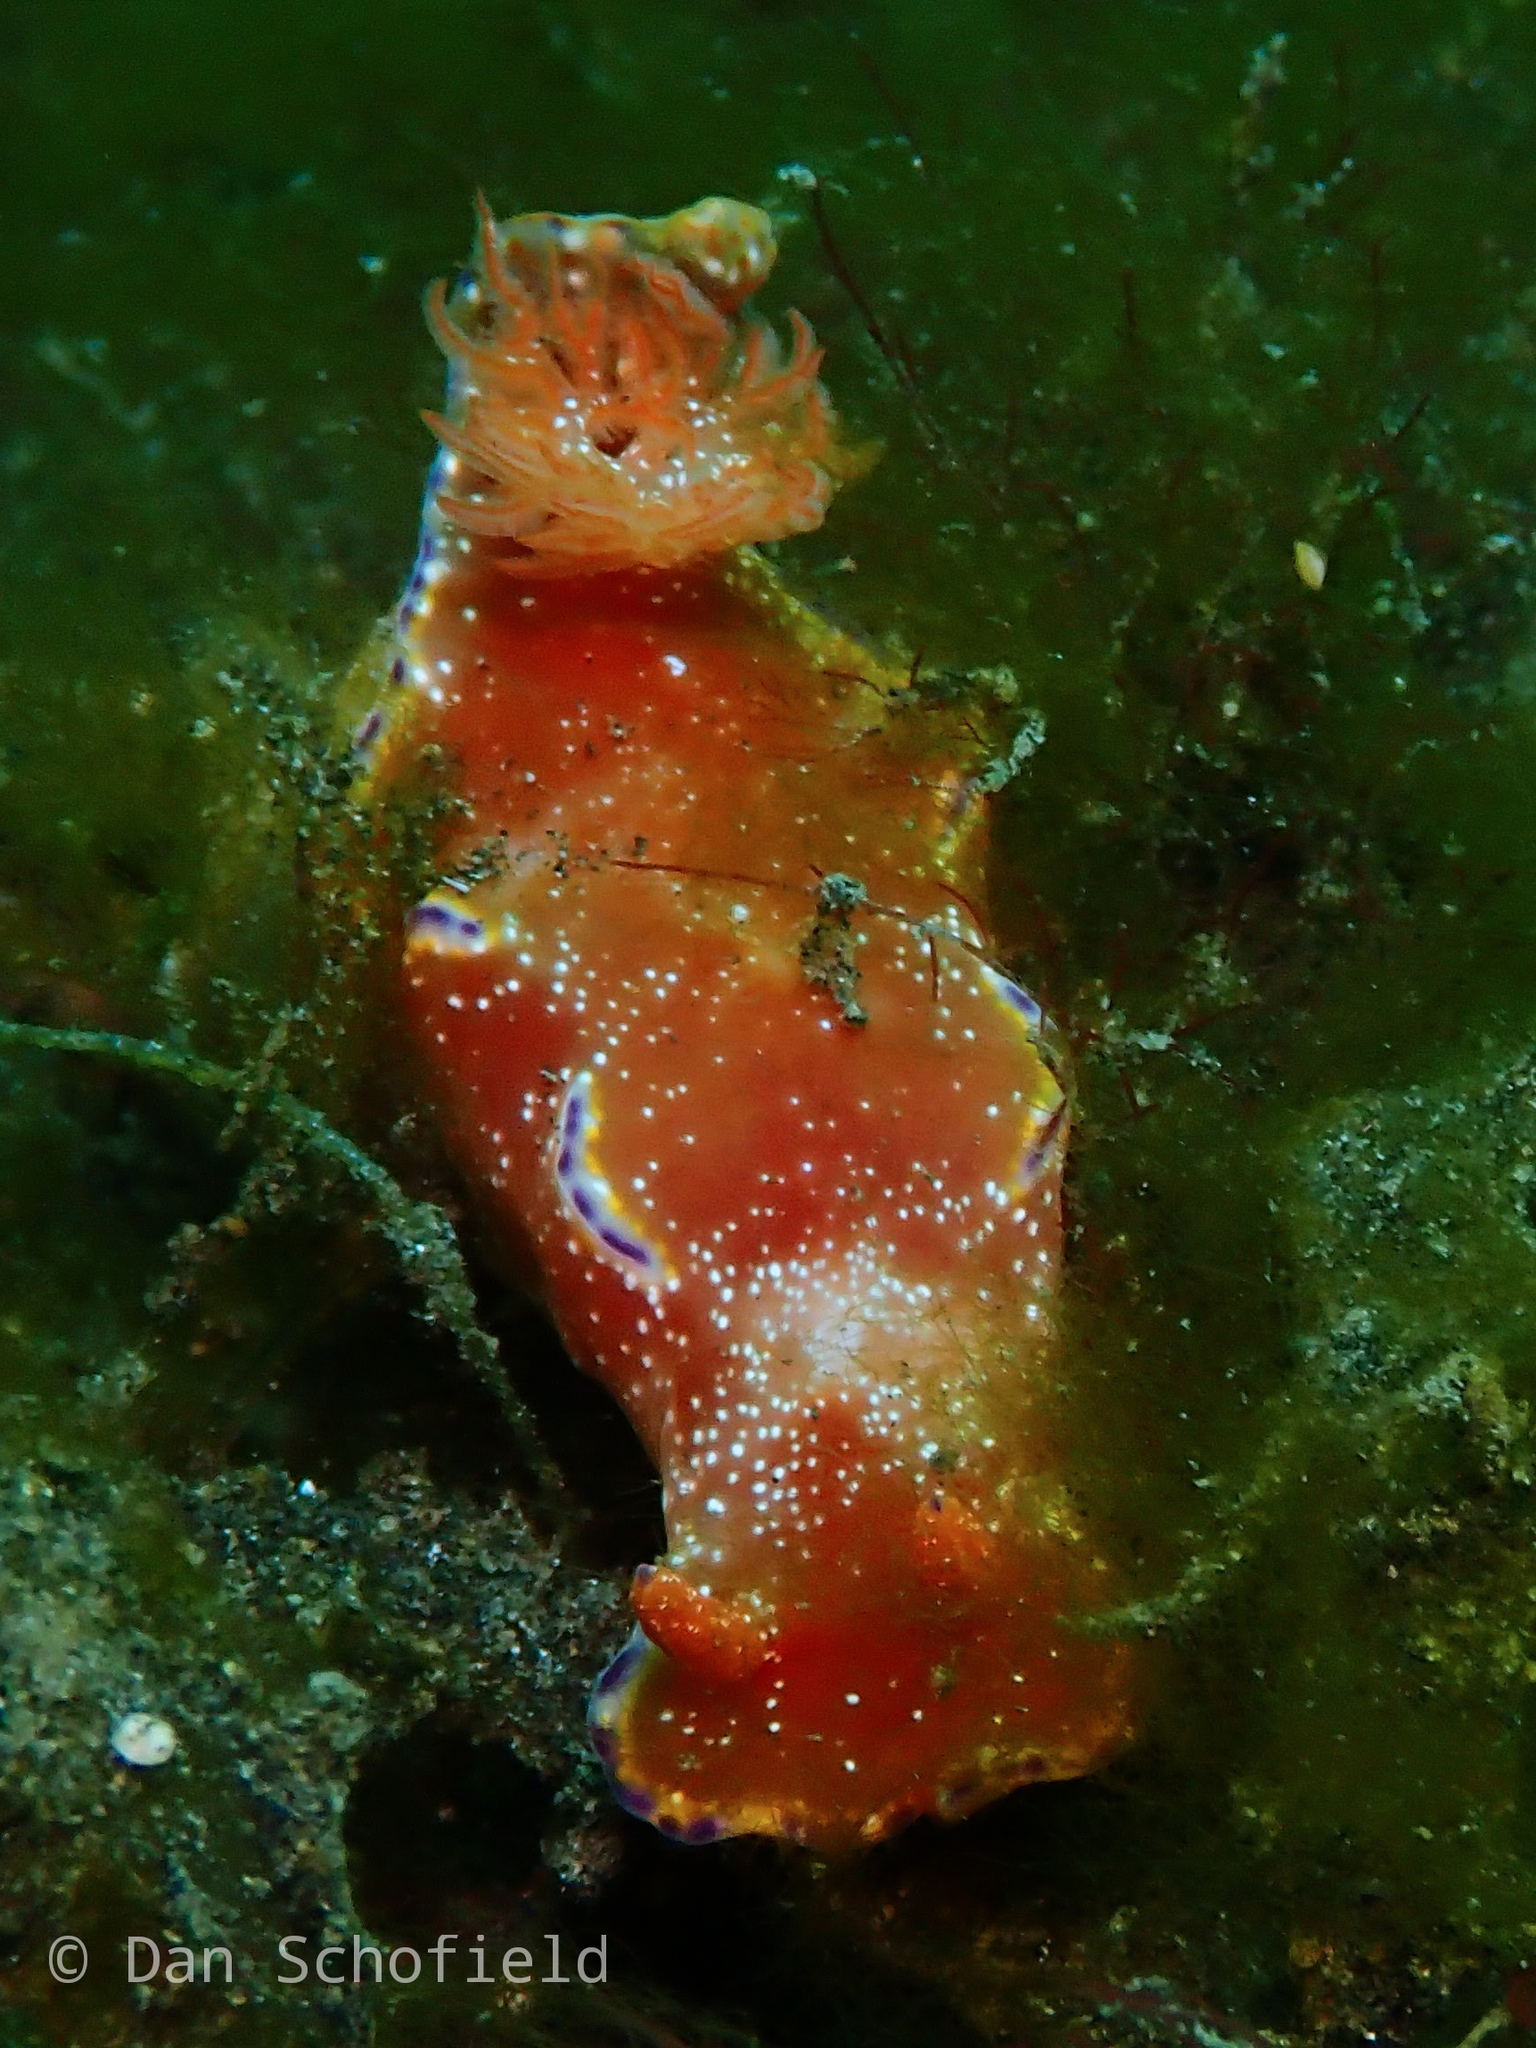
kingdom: Animalia
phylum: Mollusca
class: Gastropoda
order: Nudibranchia
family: Chromodorididae
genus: Ceratosoma
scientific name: Ceratosoma tenue
